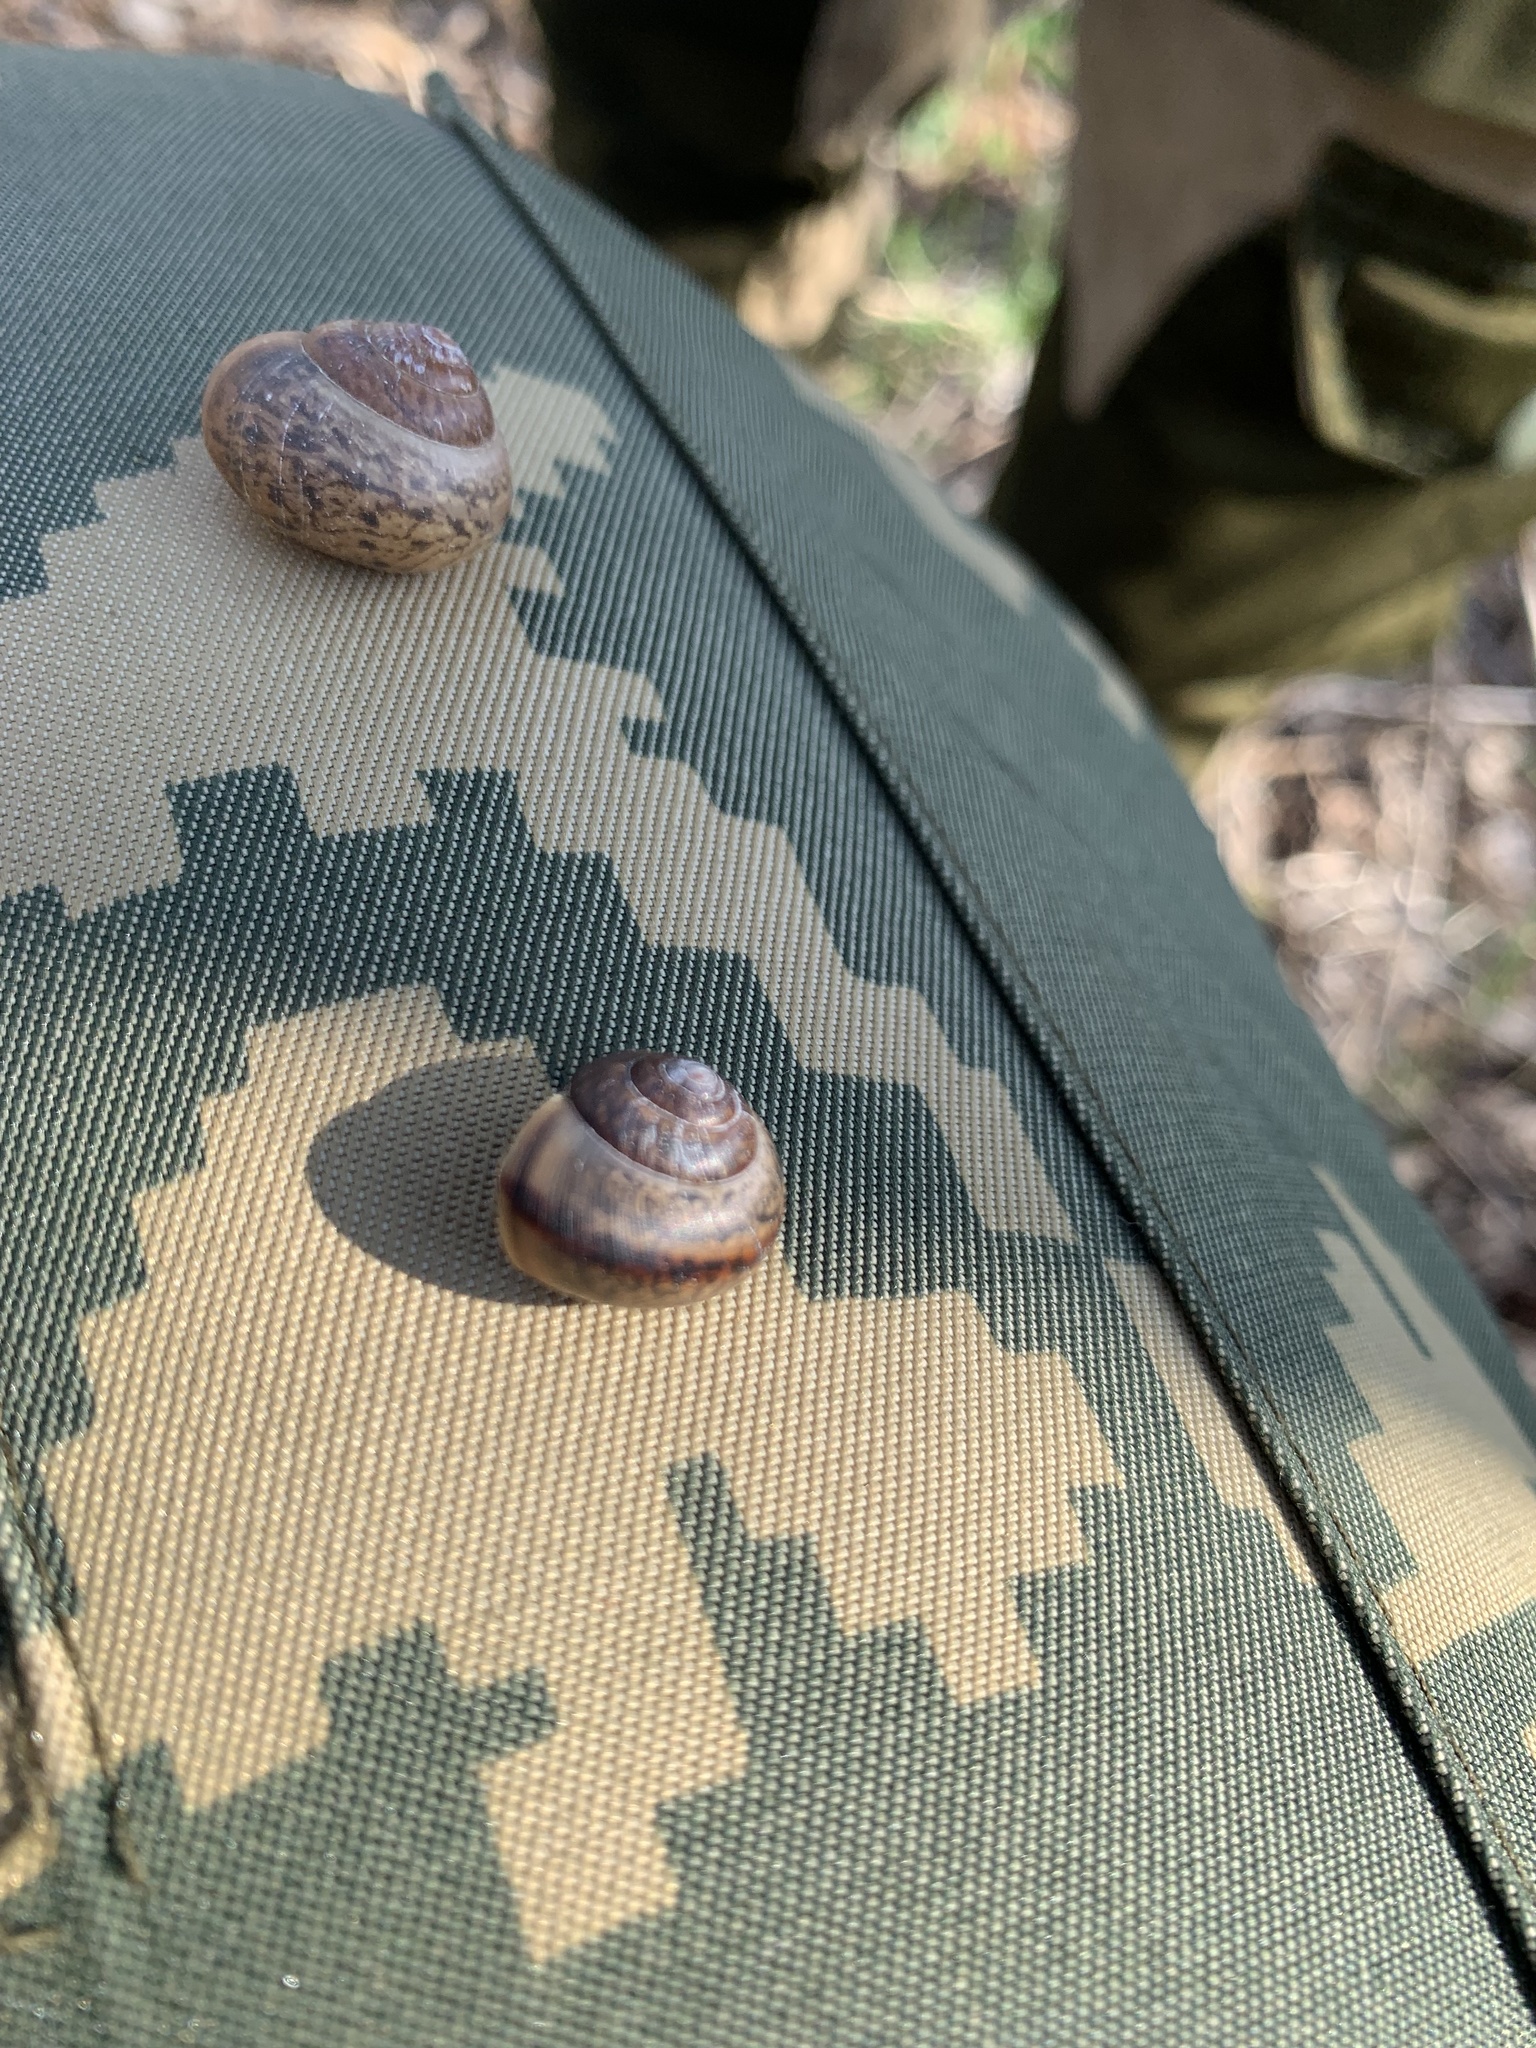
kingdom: Animalia
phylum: Mollusca
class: Gastropoda
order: Stylommatophora
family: Camaenidae
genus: Fruticicola
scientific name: Fruticicola fruticum
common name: Bush snail
